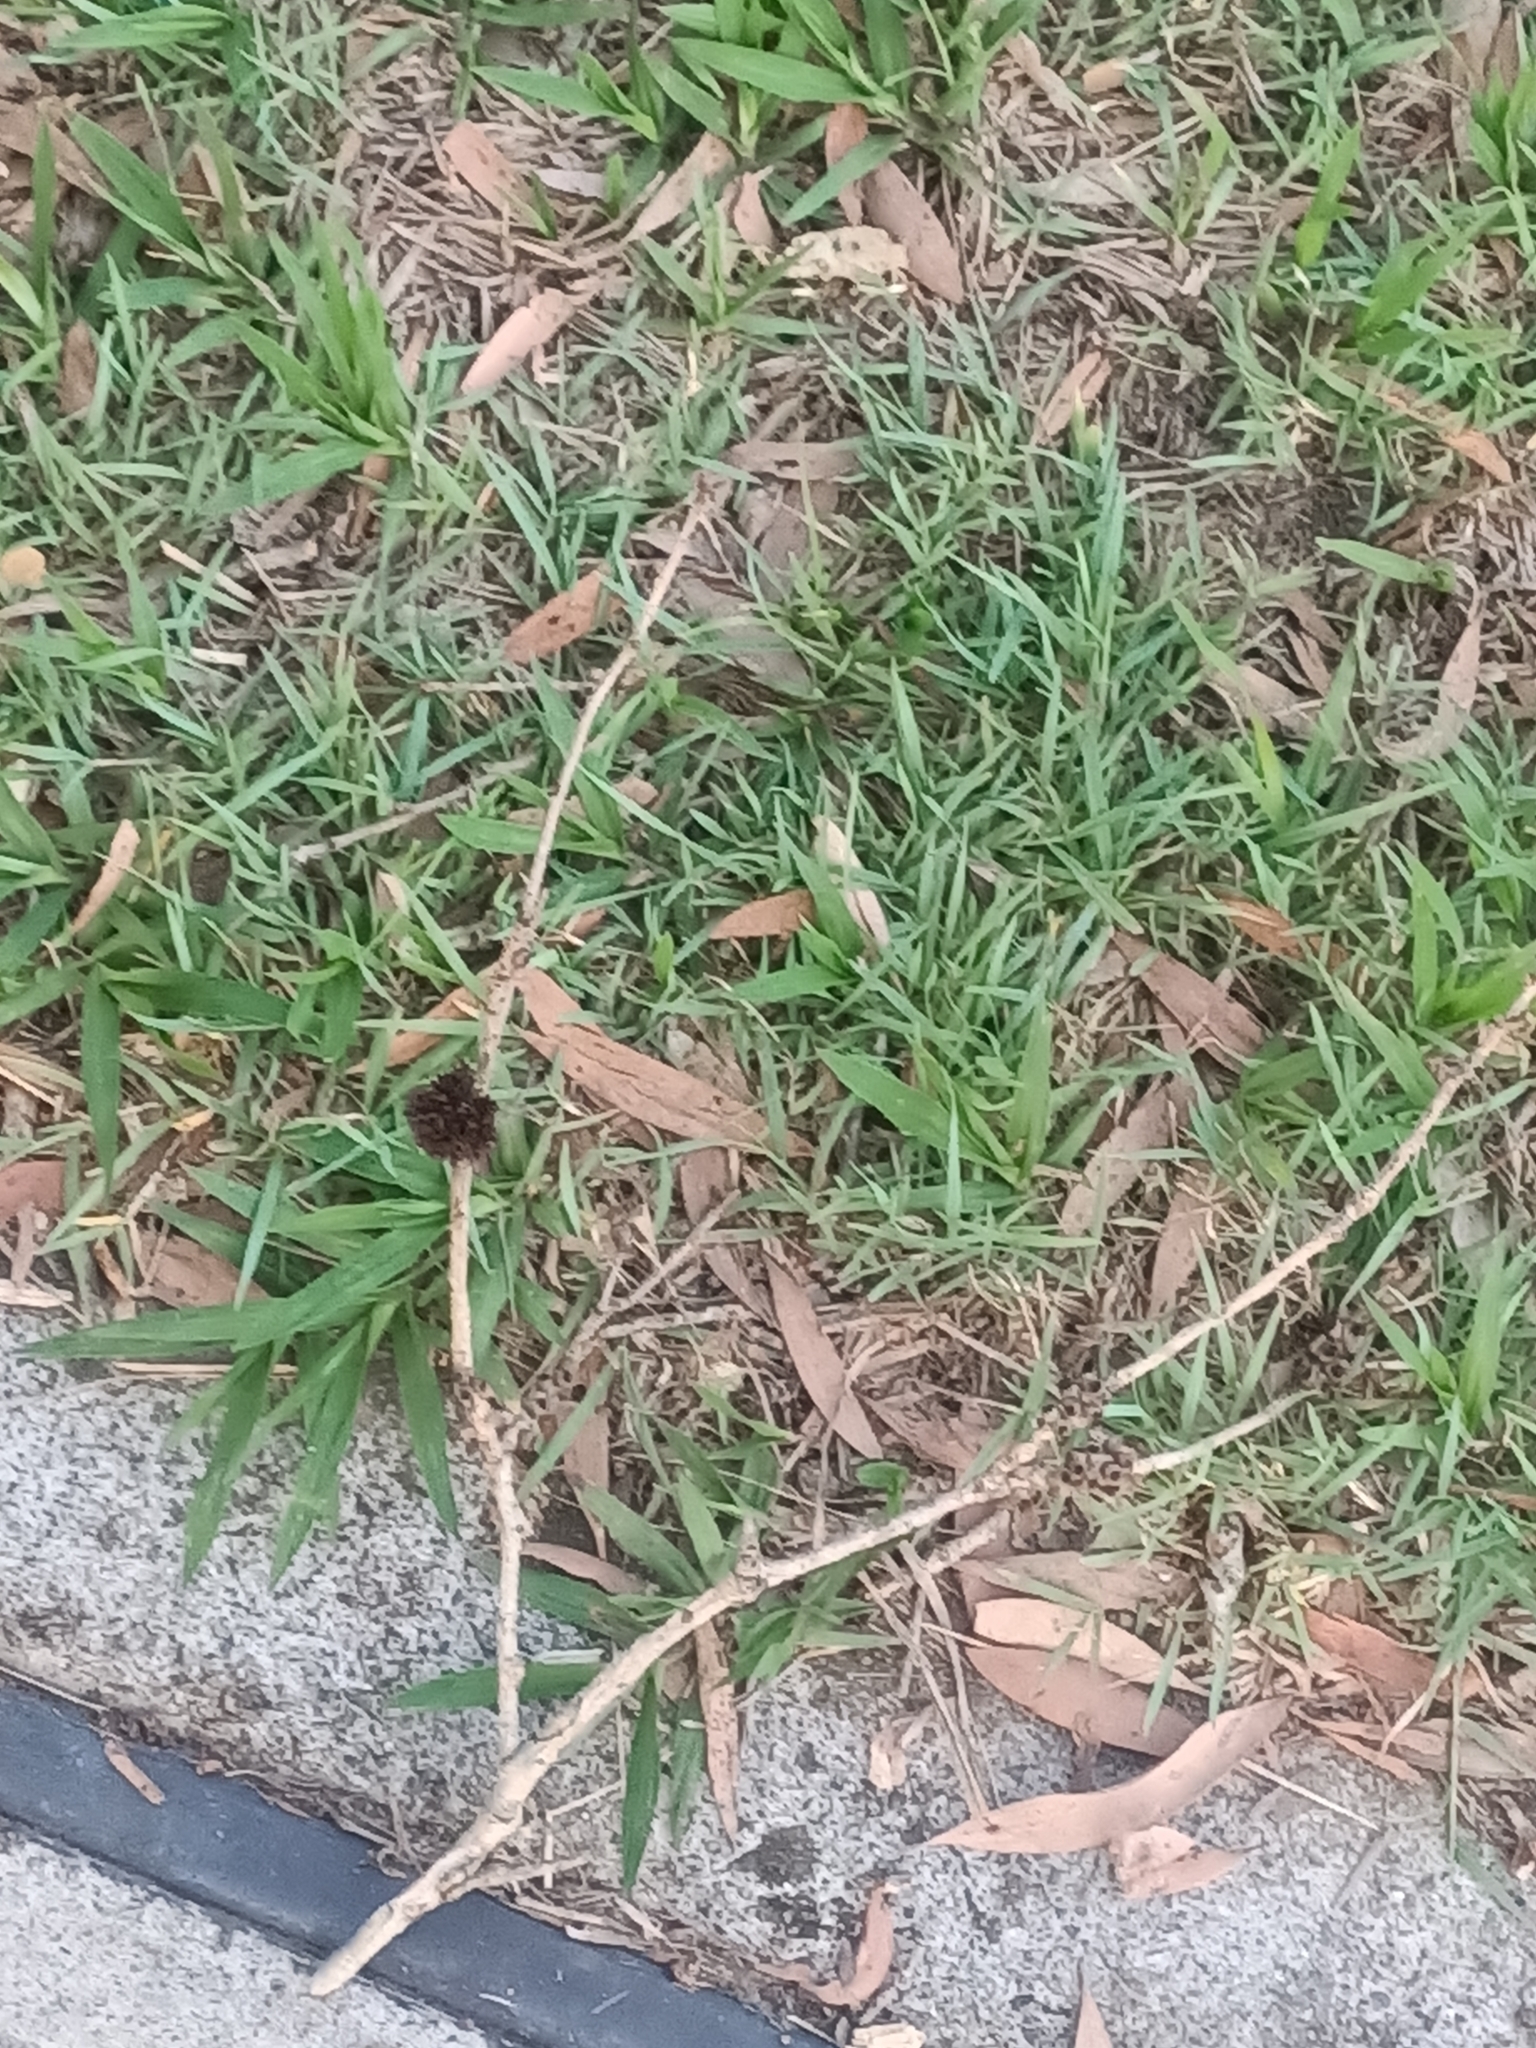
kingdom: Animalia
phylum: Arthropoda
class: Insecta
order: Hemiptera
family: Beesoniidae
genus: Beesonia
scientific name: Beesonia ferrugineus
